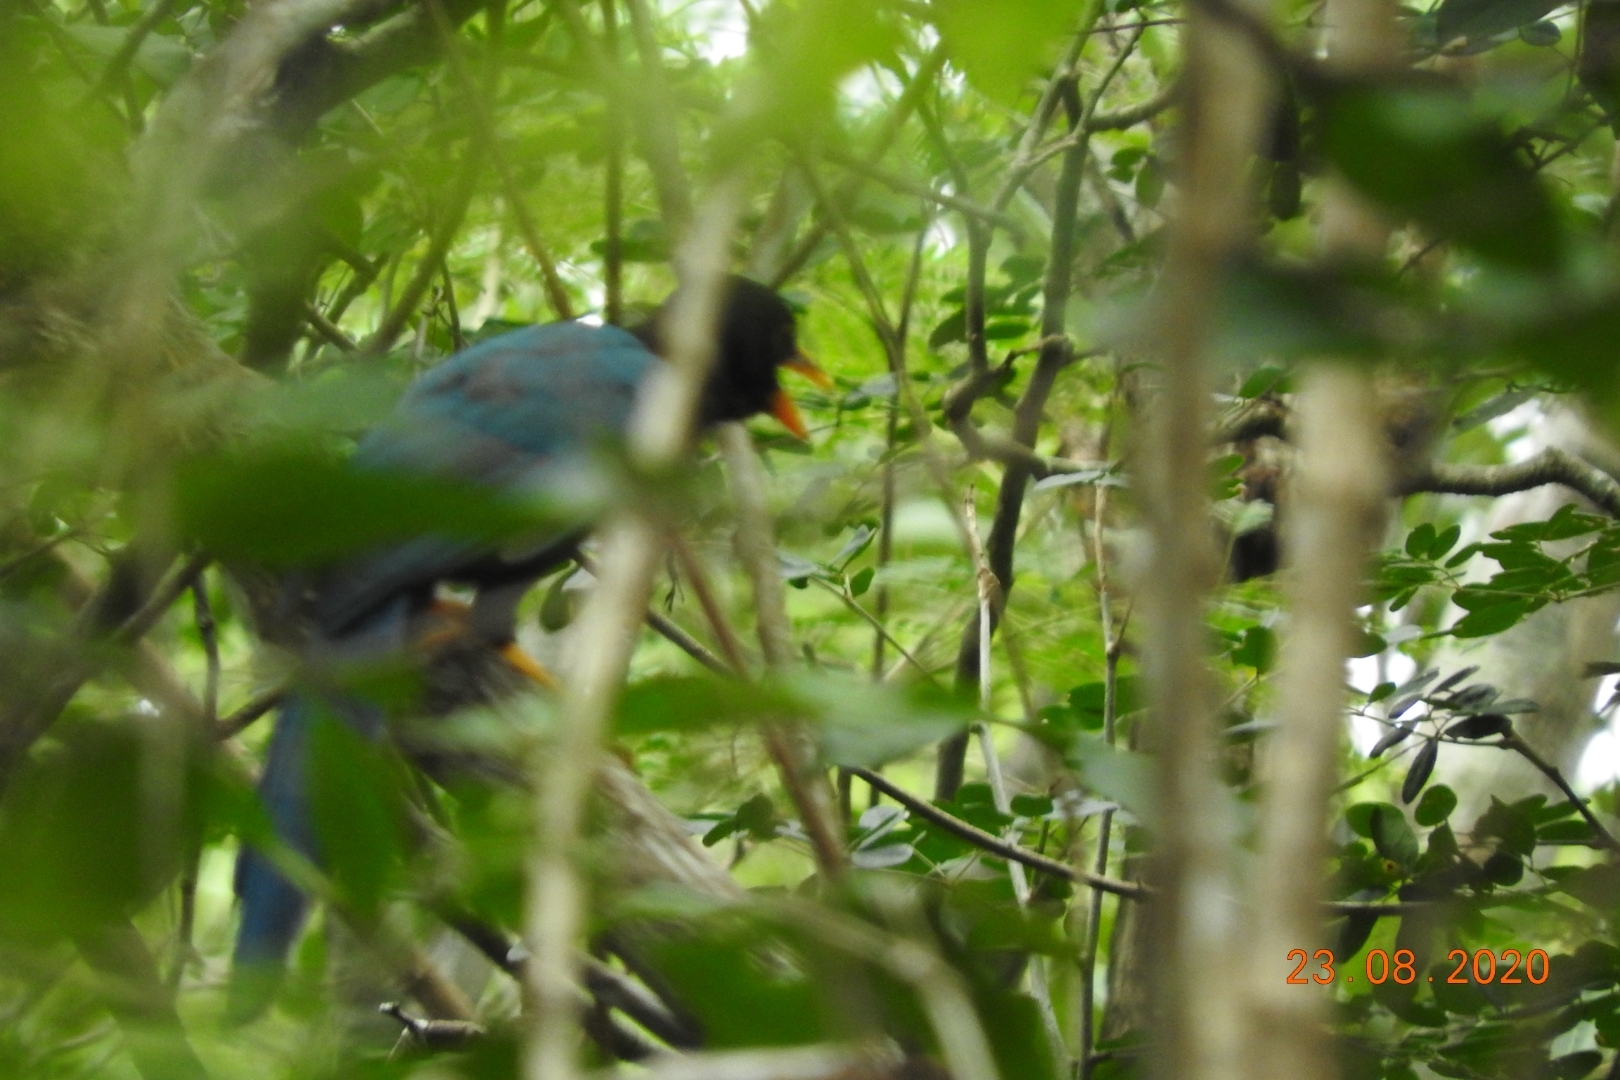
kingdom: Animalia
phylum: Chordata
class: Aves
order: Passeriformes
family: Corvidae
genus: Cyanocorax
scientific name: Cyanocorax yucatanicus
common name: Yucatan jay
